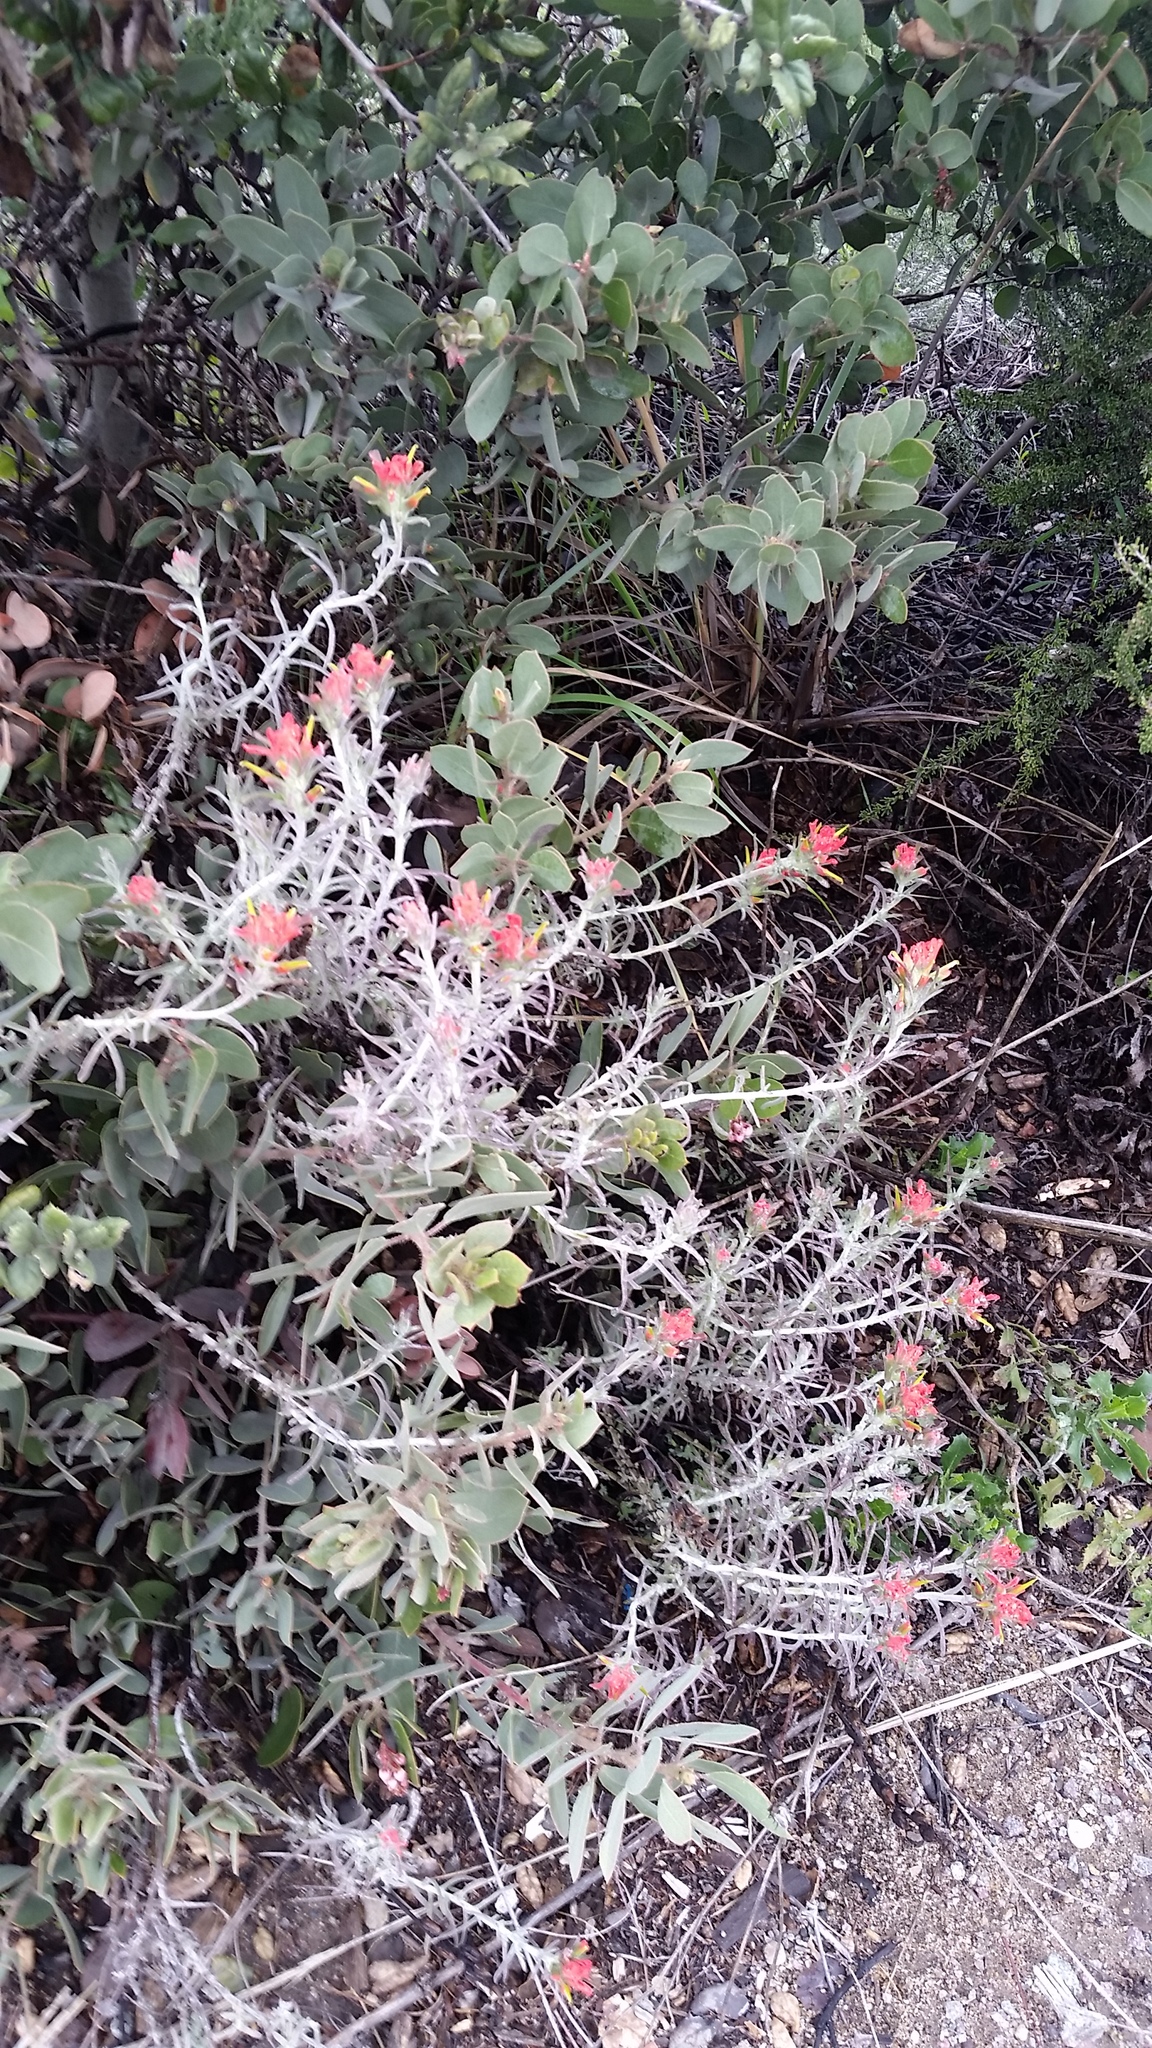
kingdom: Plantae
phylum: Tracheophyta
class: Magnoliopsida
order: Lamiales
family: Orobanchaceae
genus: Castilleja
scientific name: Castilleja foliolosa
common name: Woolly indian paintbrush
